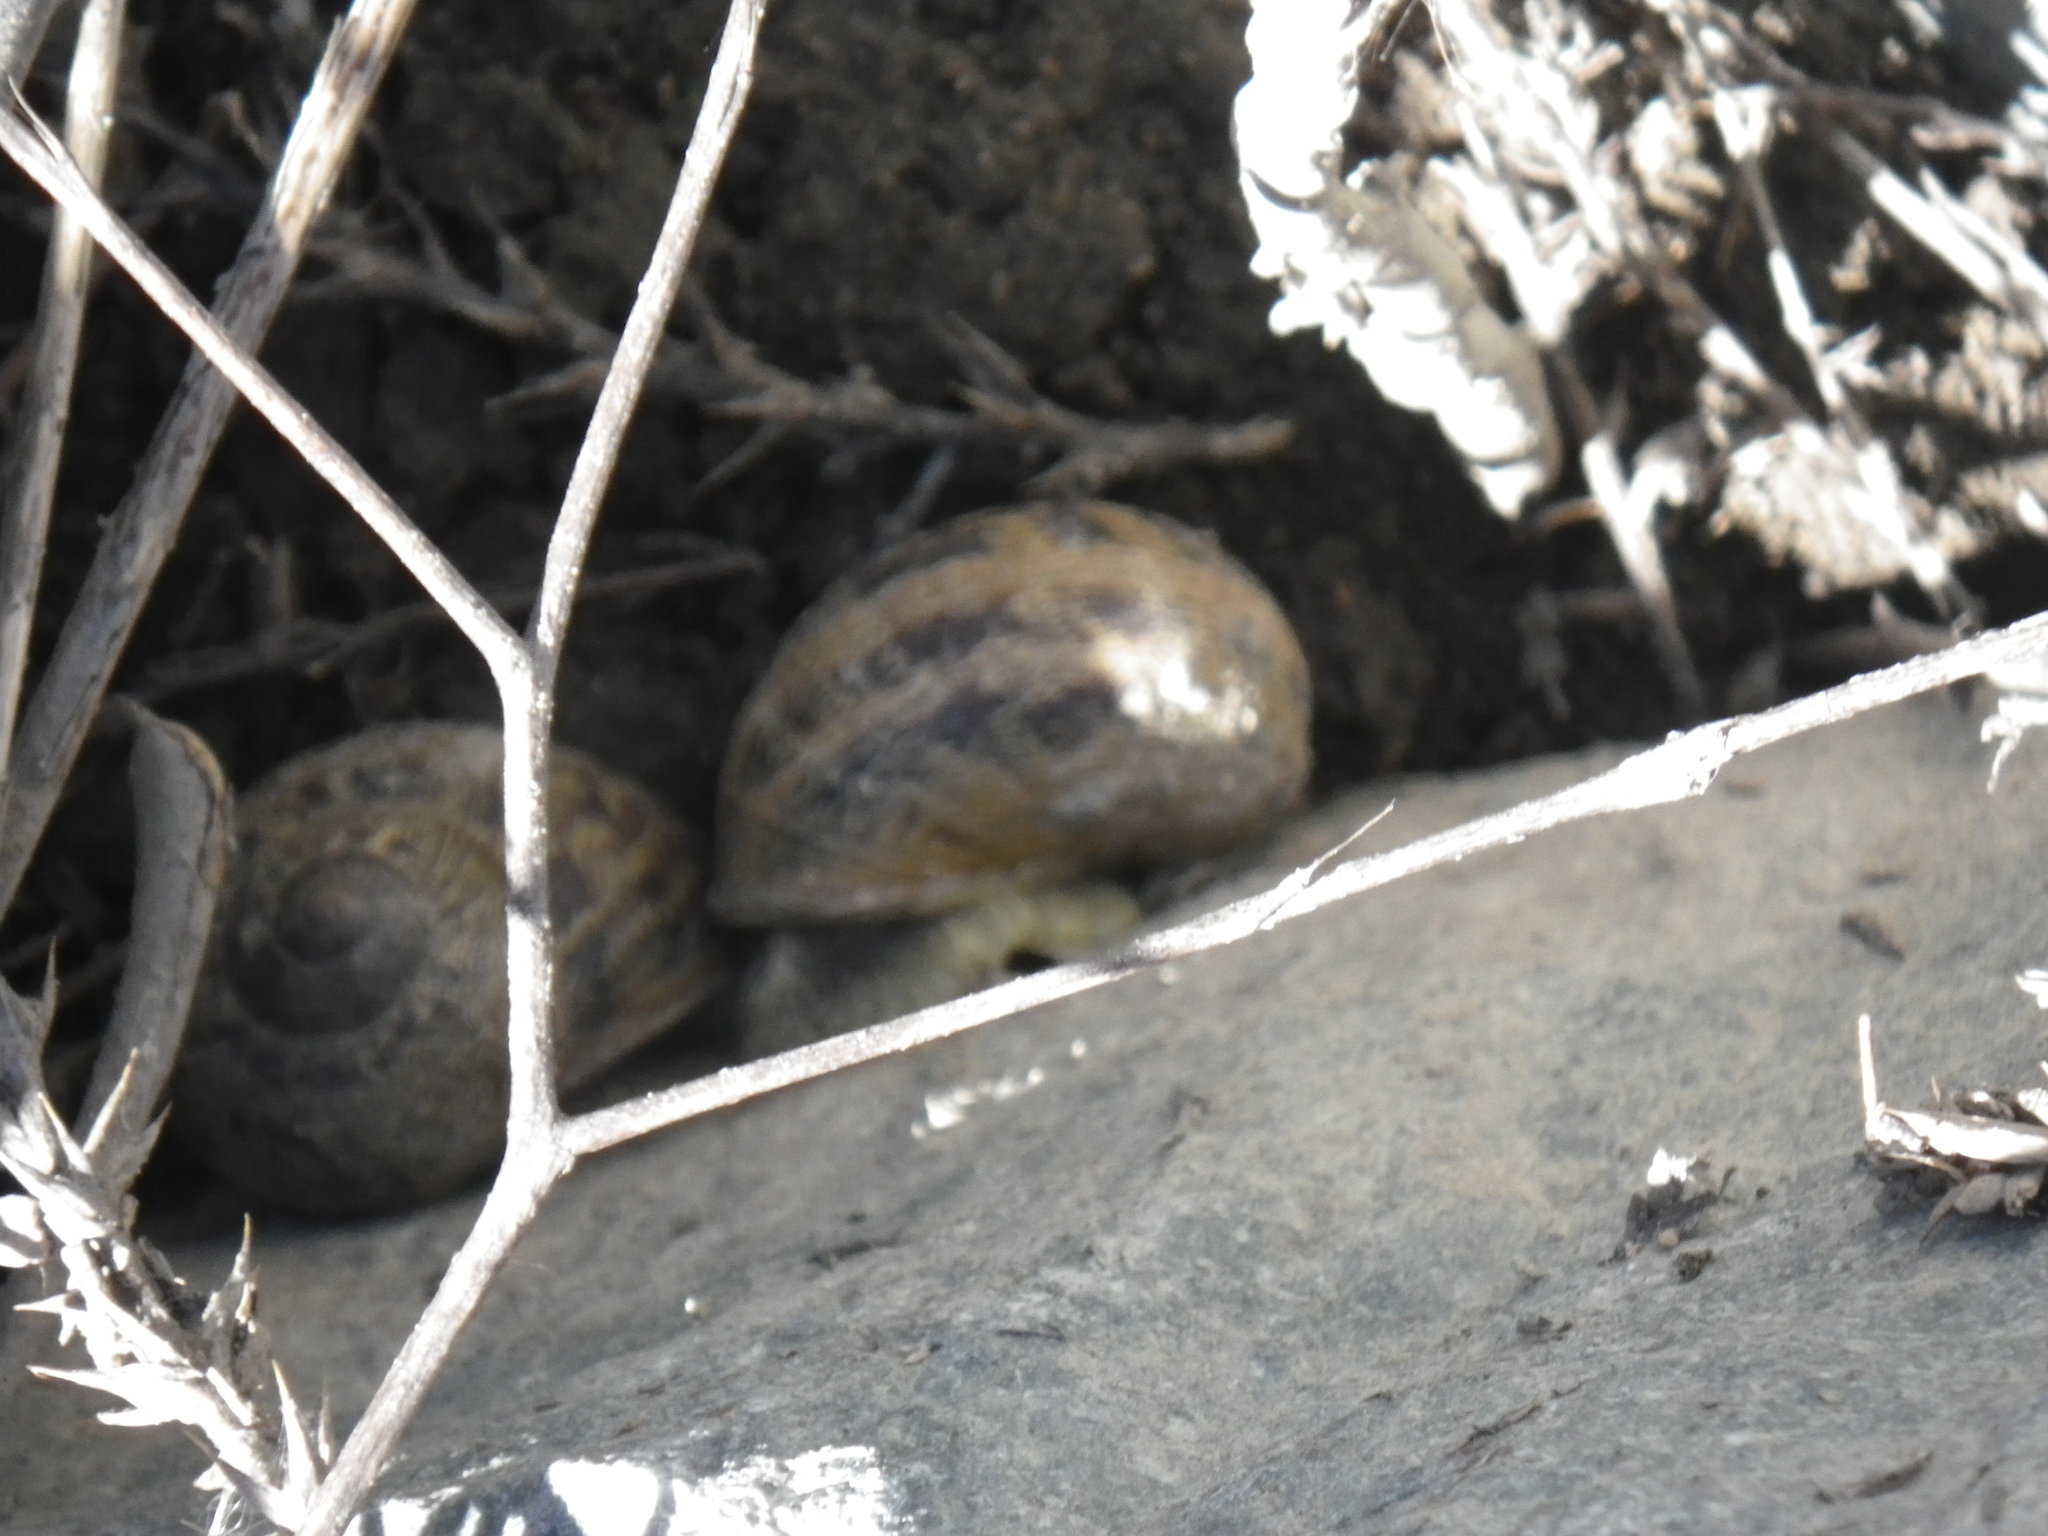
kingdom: Animalia
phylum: Mollusca
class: Gastropoda
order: Stylommatophora
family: Helicidae
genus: Cornu
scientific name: Cornu aspersum
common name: Brown garden snail
